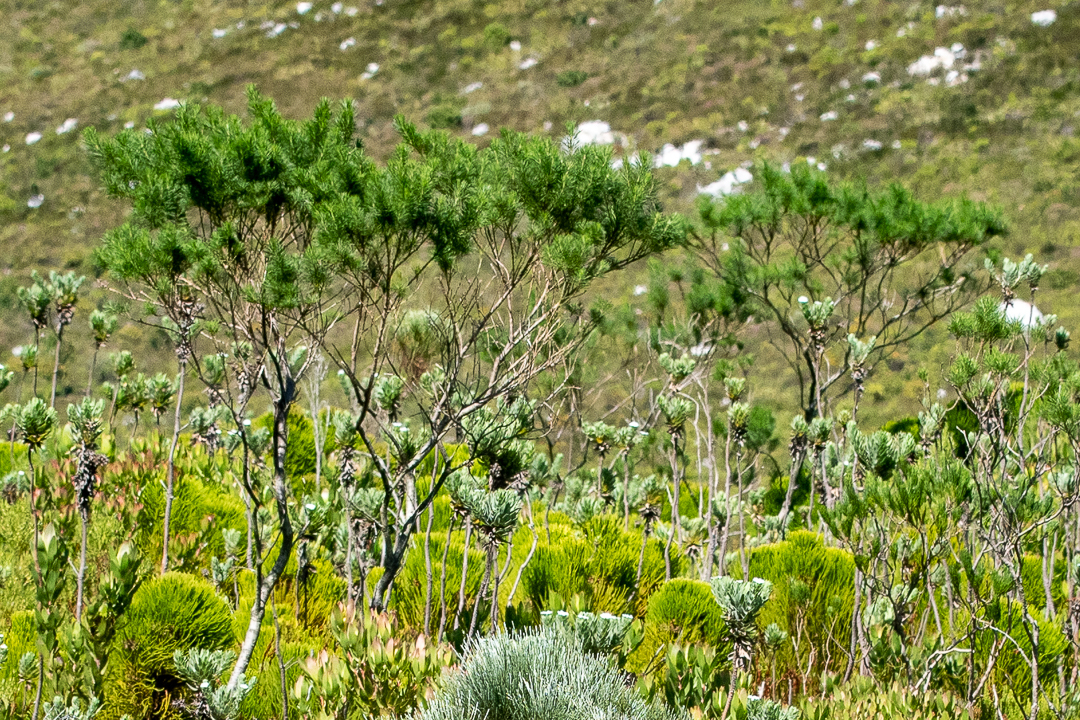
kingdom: Plantae
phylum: Tracheophyta
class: Magnoliopsida
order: Fabales
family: Fabaceae
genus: Psoralea
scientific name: Psoralea pinnata
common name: African scurfpea
